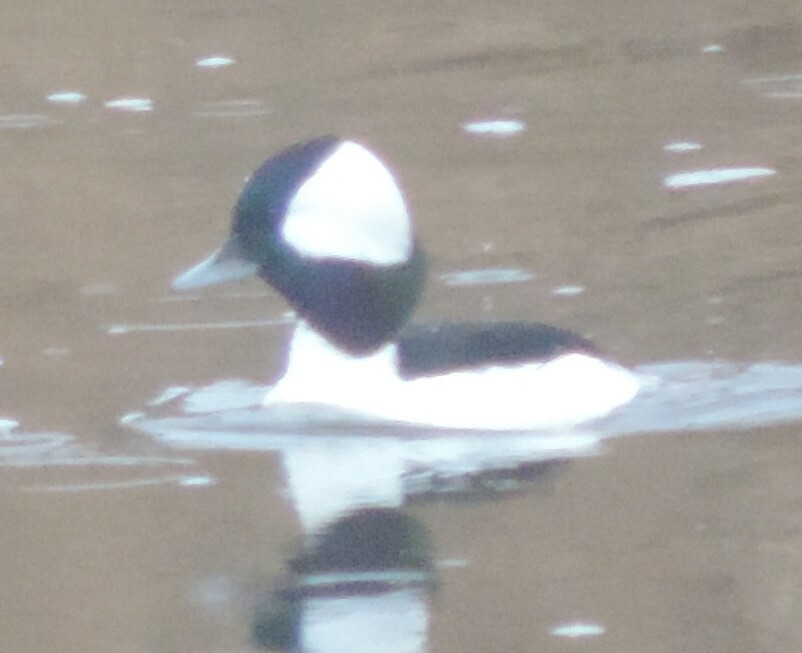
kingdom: Animalia
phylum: Chordata
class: Aves
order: Anseriformes
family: Anatidae
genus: Bucephala
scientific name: Bucephala albeola
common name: Bufflehead
